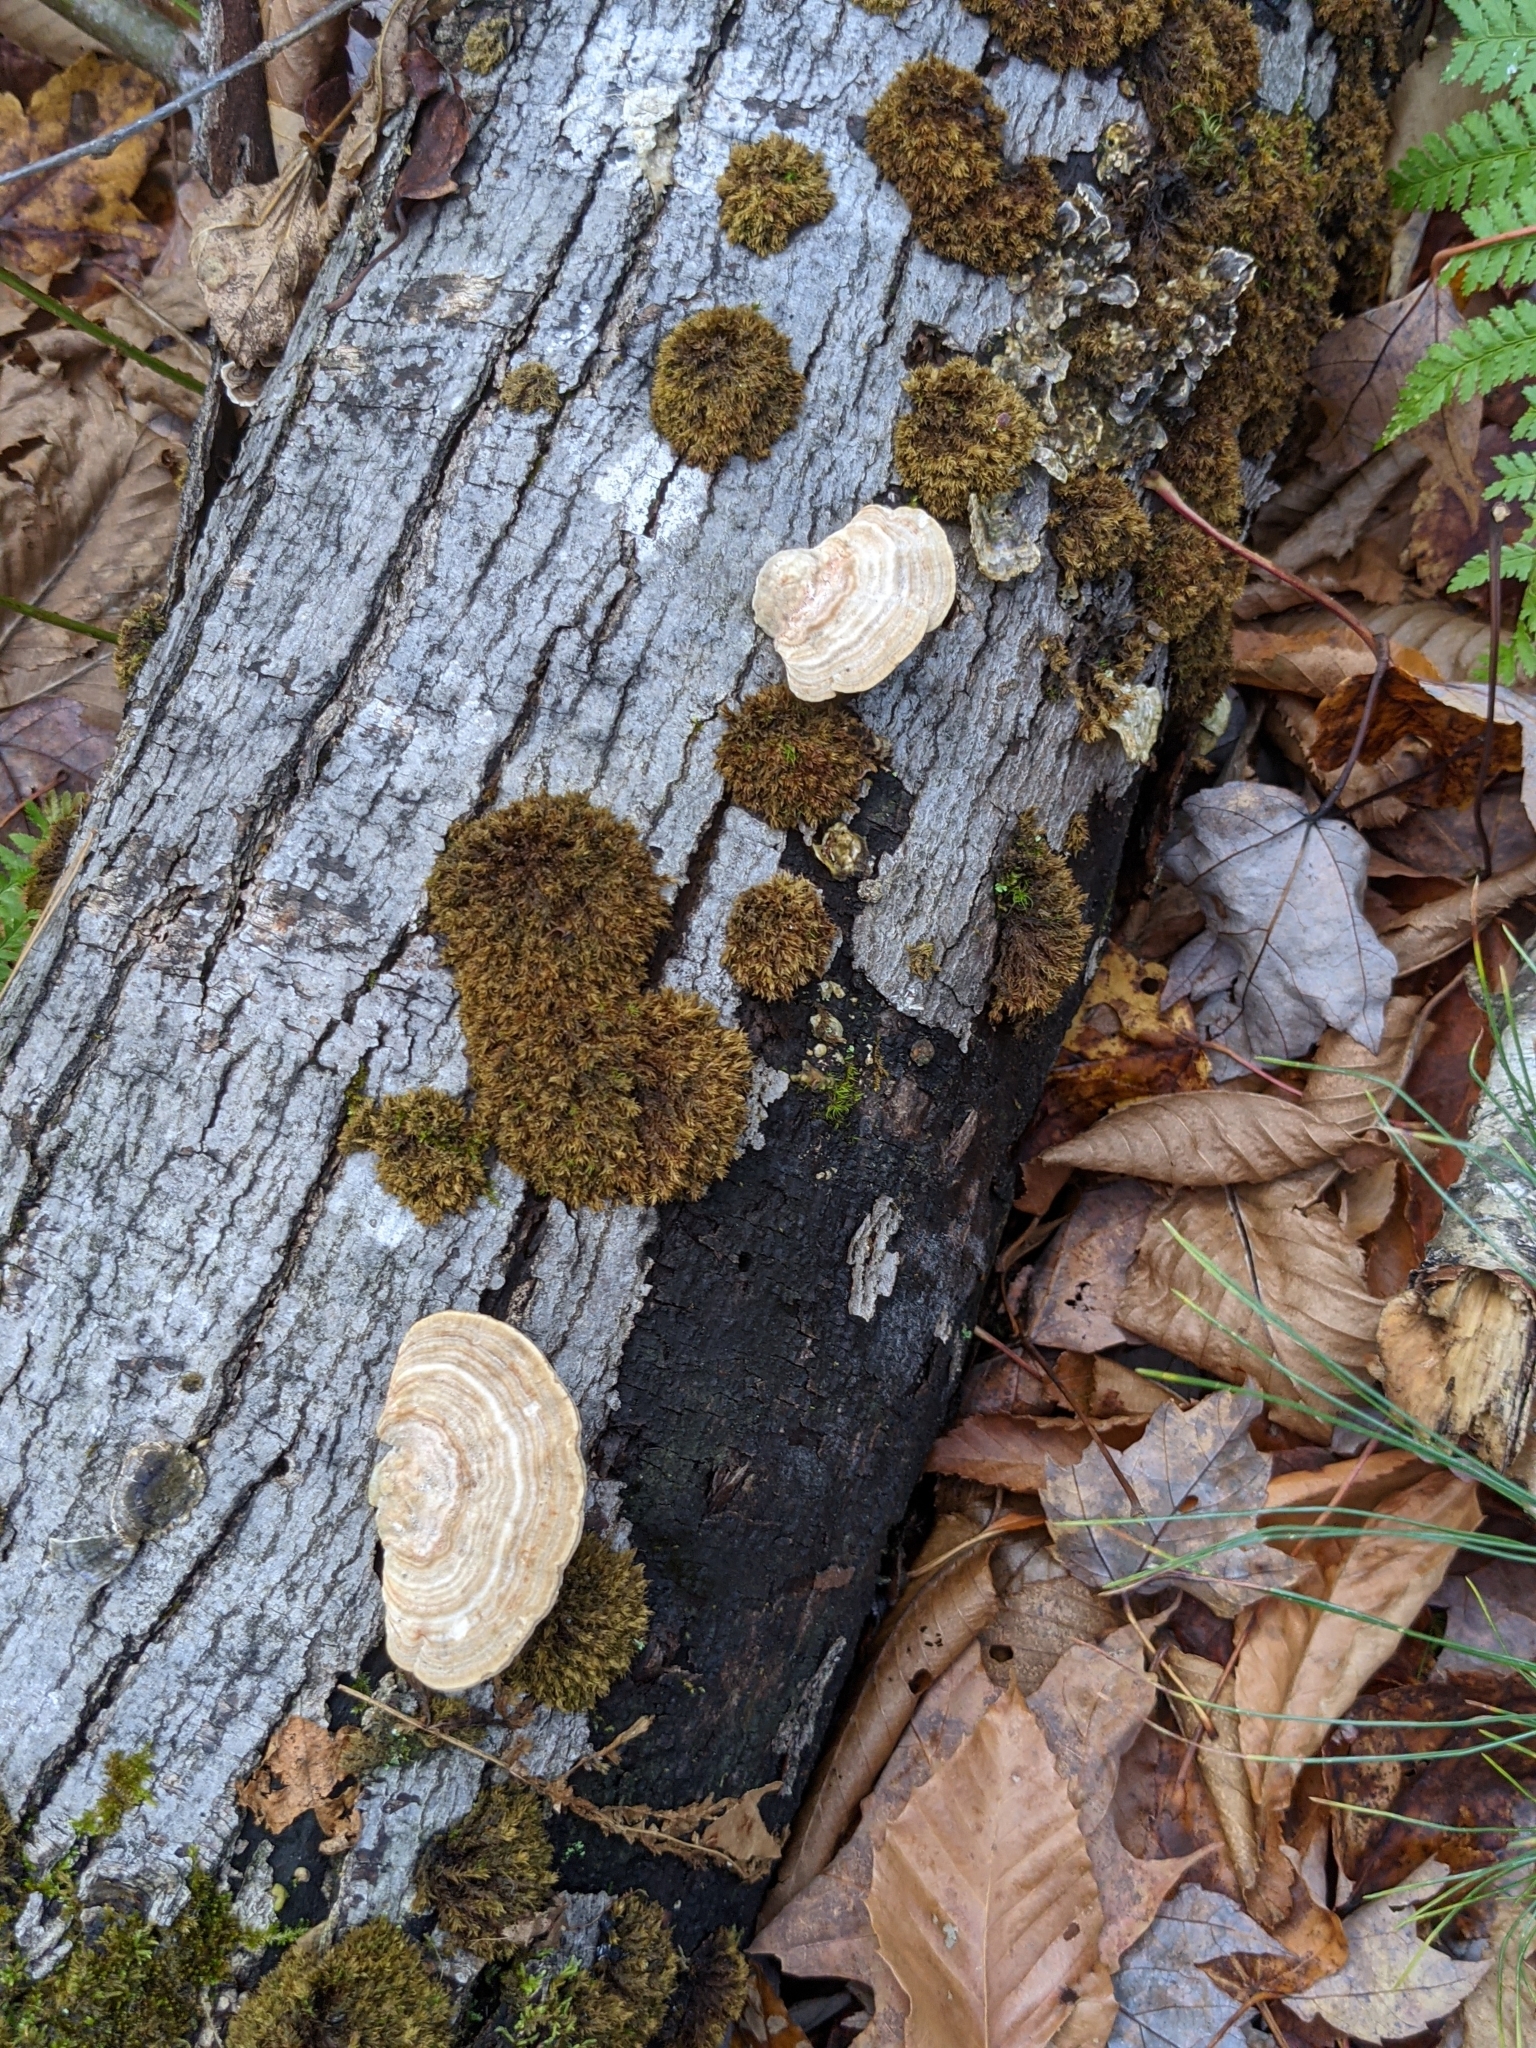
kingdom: Fungi
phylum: Basidiomycota
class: Agaricomycetes
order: Polyporales
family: Polyporaceae
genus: Lenzites
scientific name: Lenzites betulinus
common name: Birch mazegill
